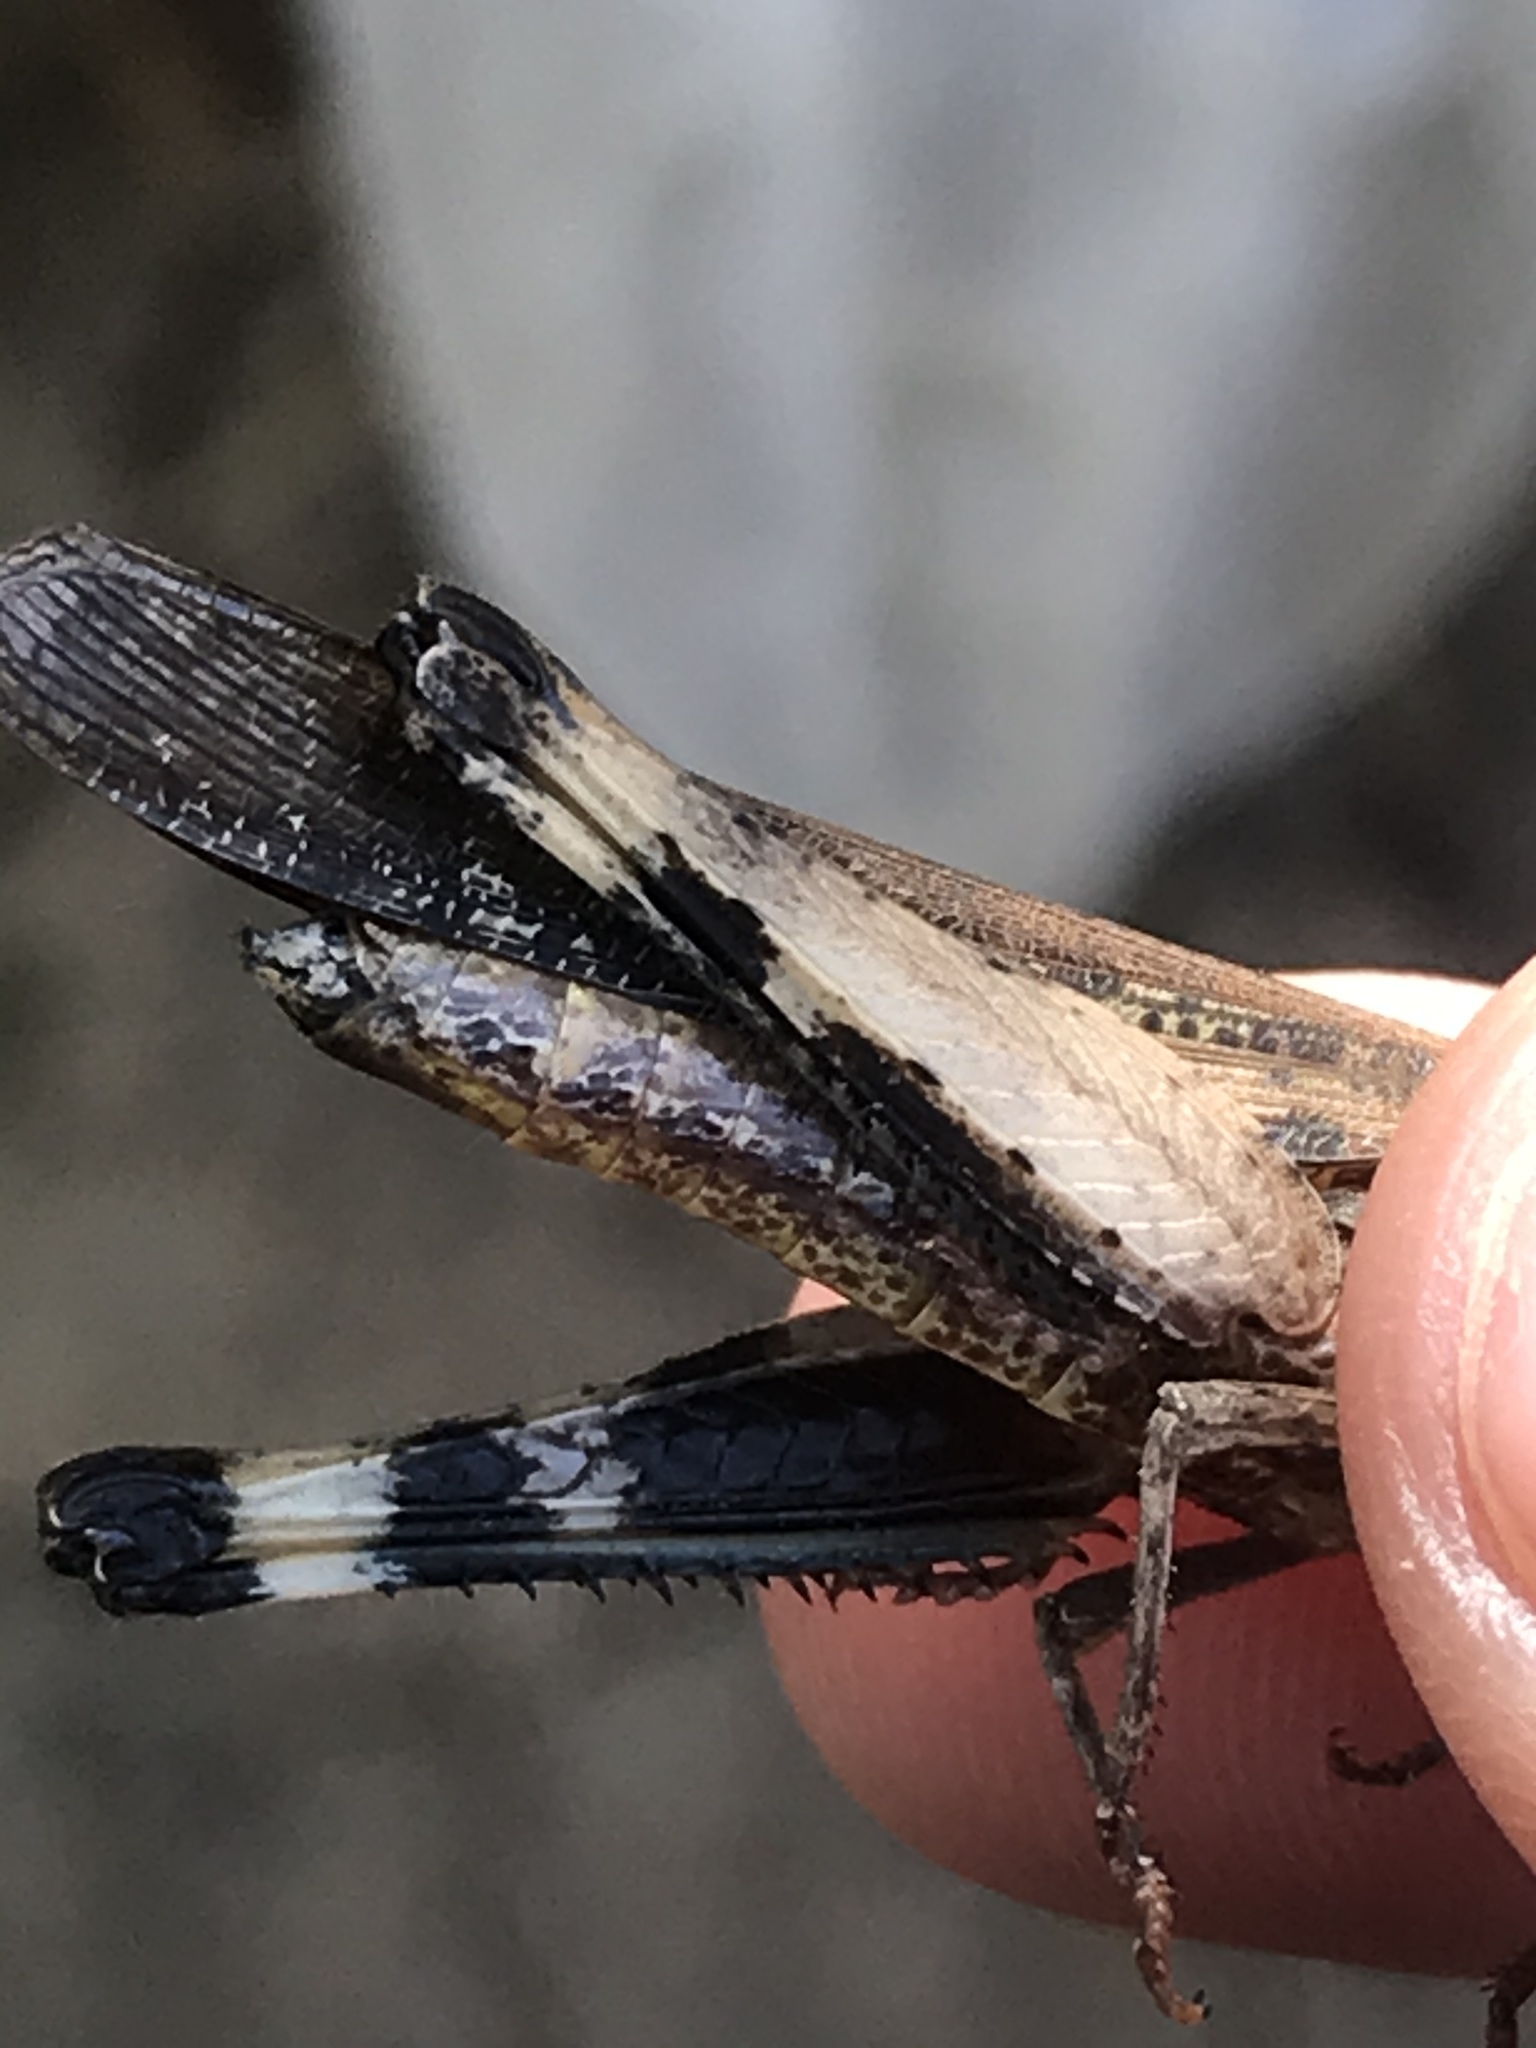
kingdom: Animalia
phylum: Arthropoda
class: Insecta
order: Orthoptera
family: Acrididae
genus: Chortophaga
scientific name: Chortophaga viridifasciata
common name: Green-striped grasshopper
